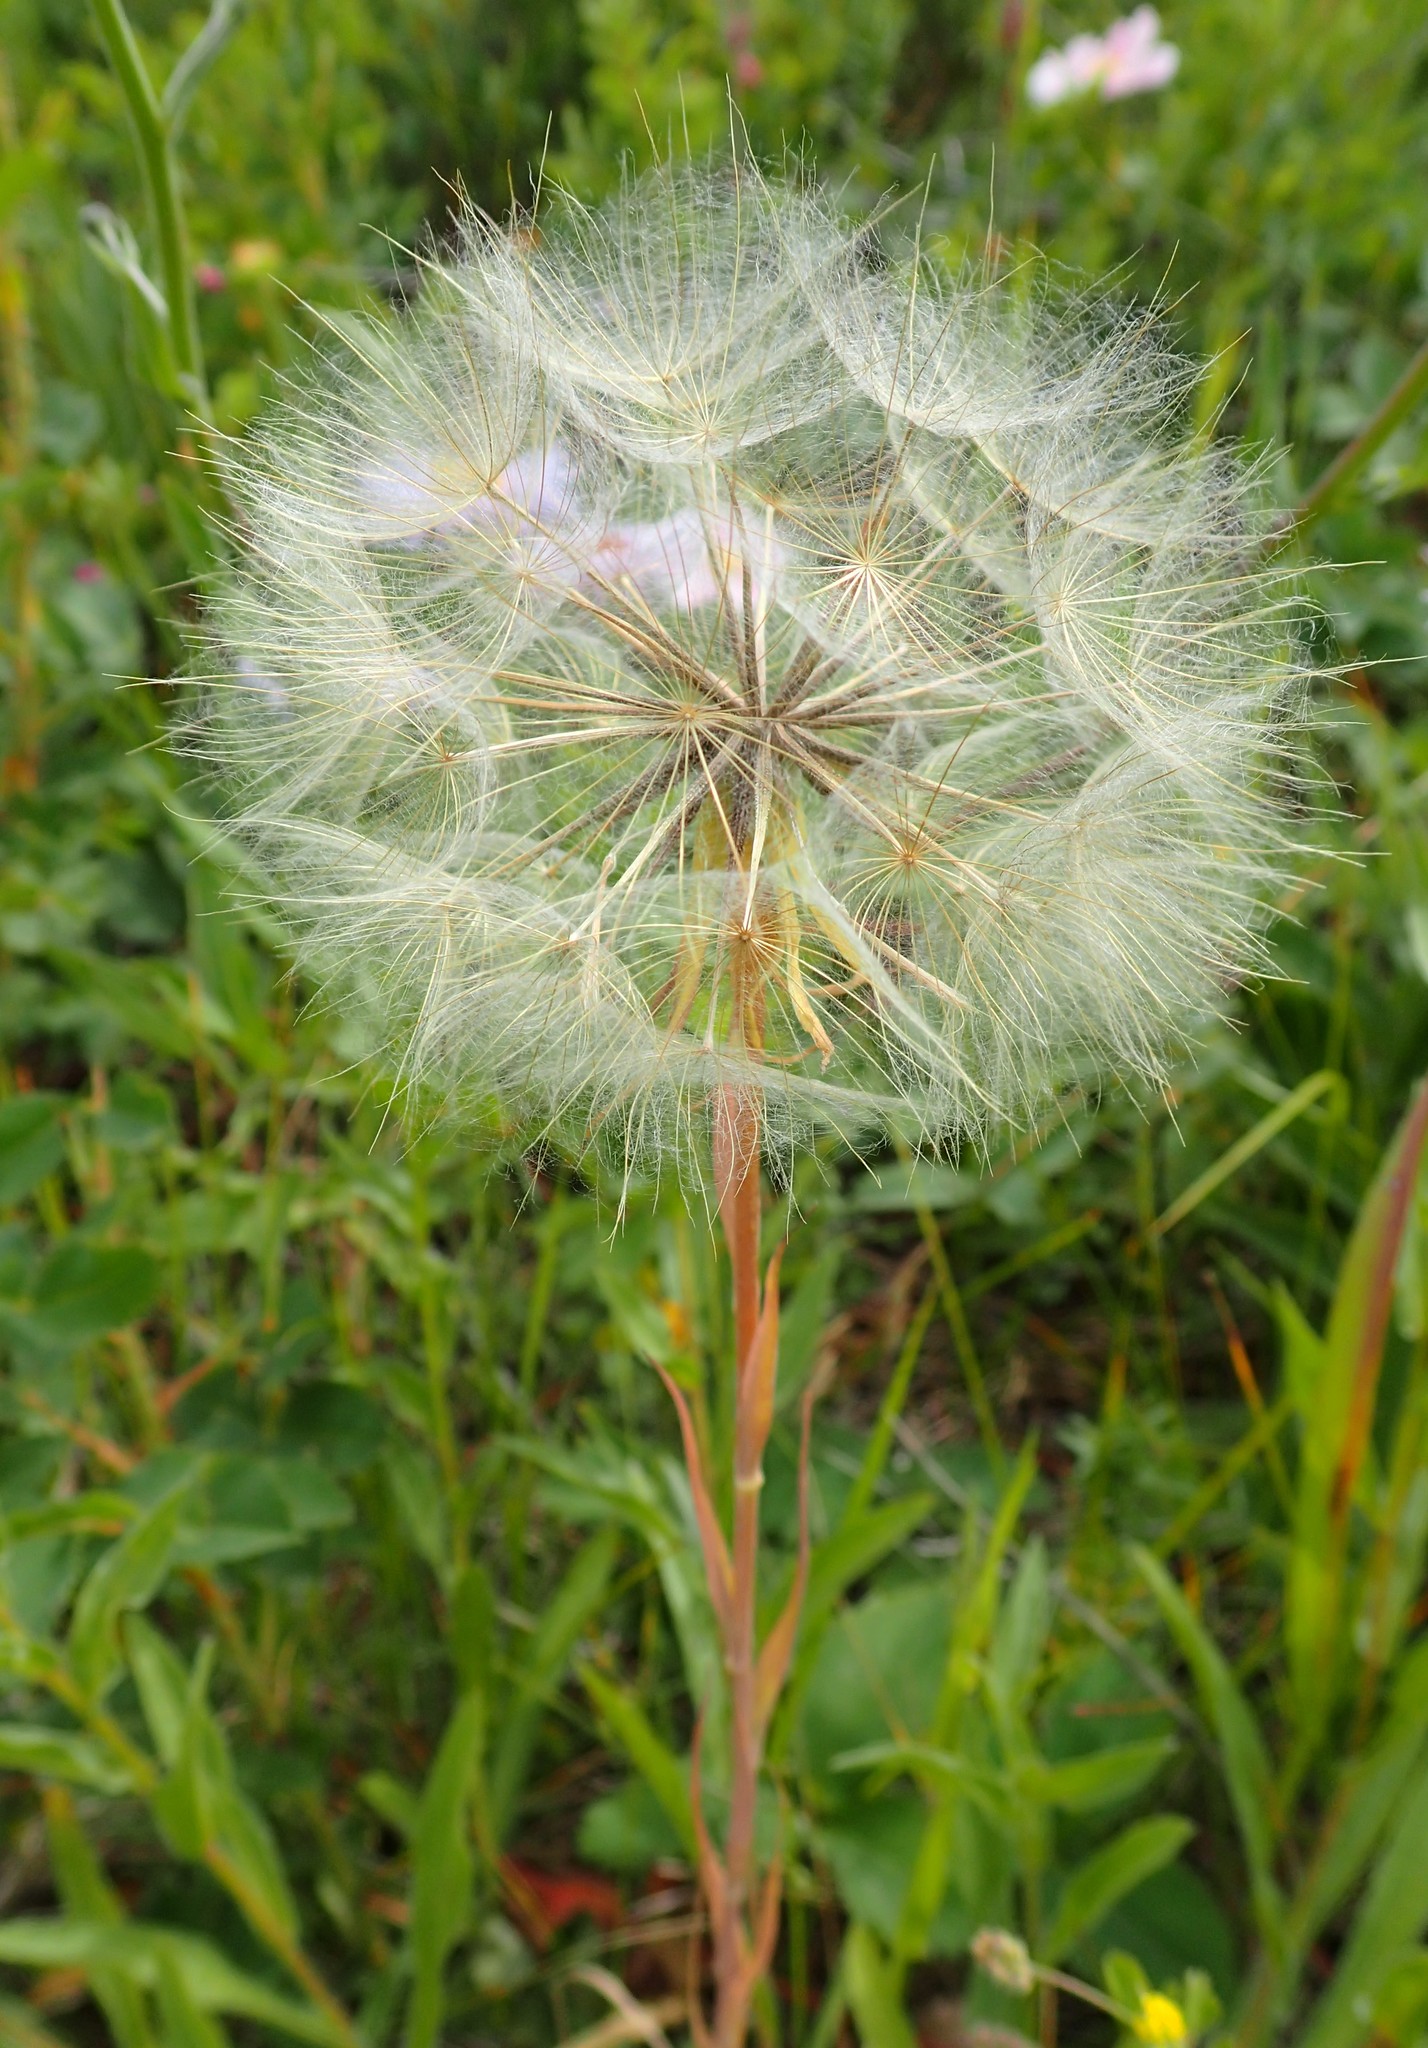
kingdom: Plantae
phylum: Tracheophyta
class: Magnoliopsida
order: Asterales
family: Asteraceae
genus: Tragopogon
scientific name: Tragopogon dubius
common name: Yellow salsify
